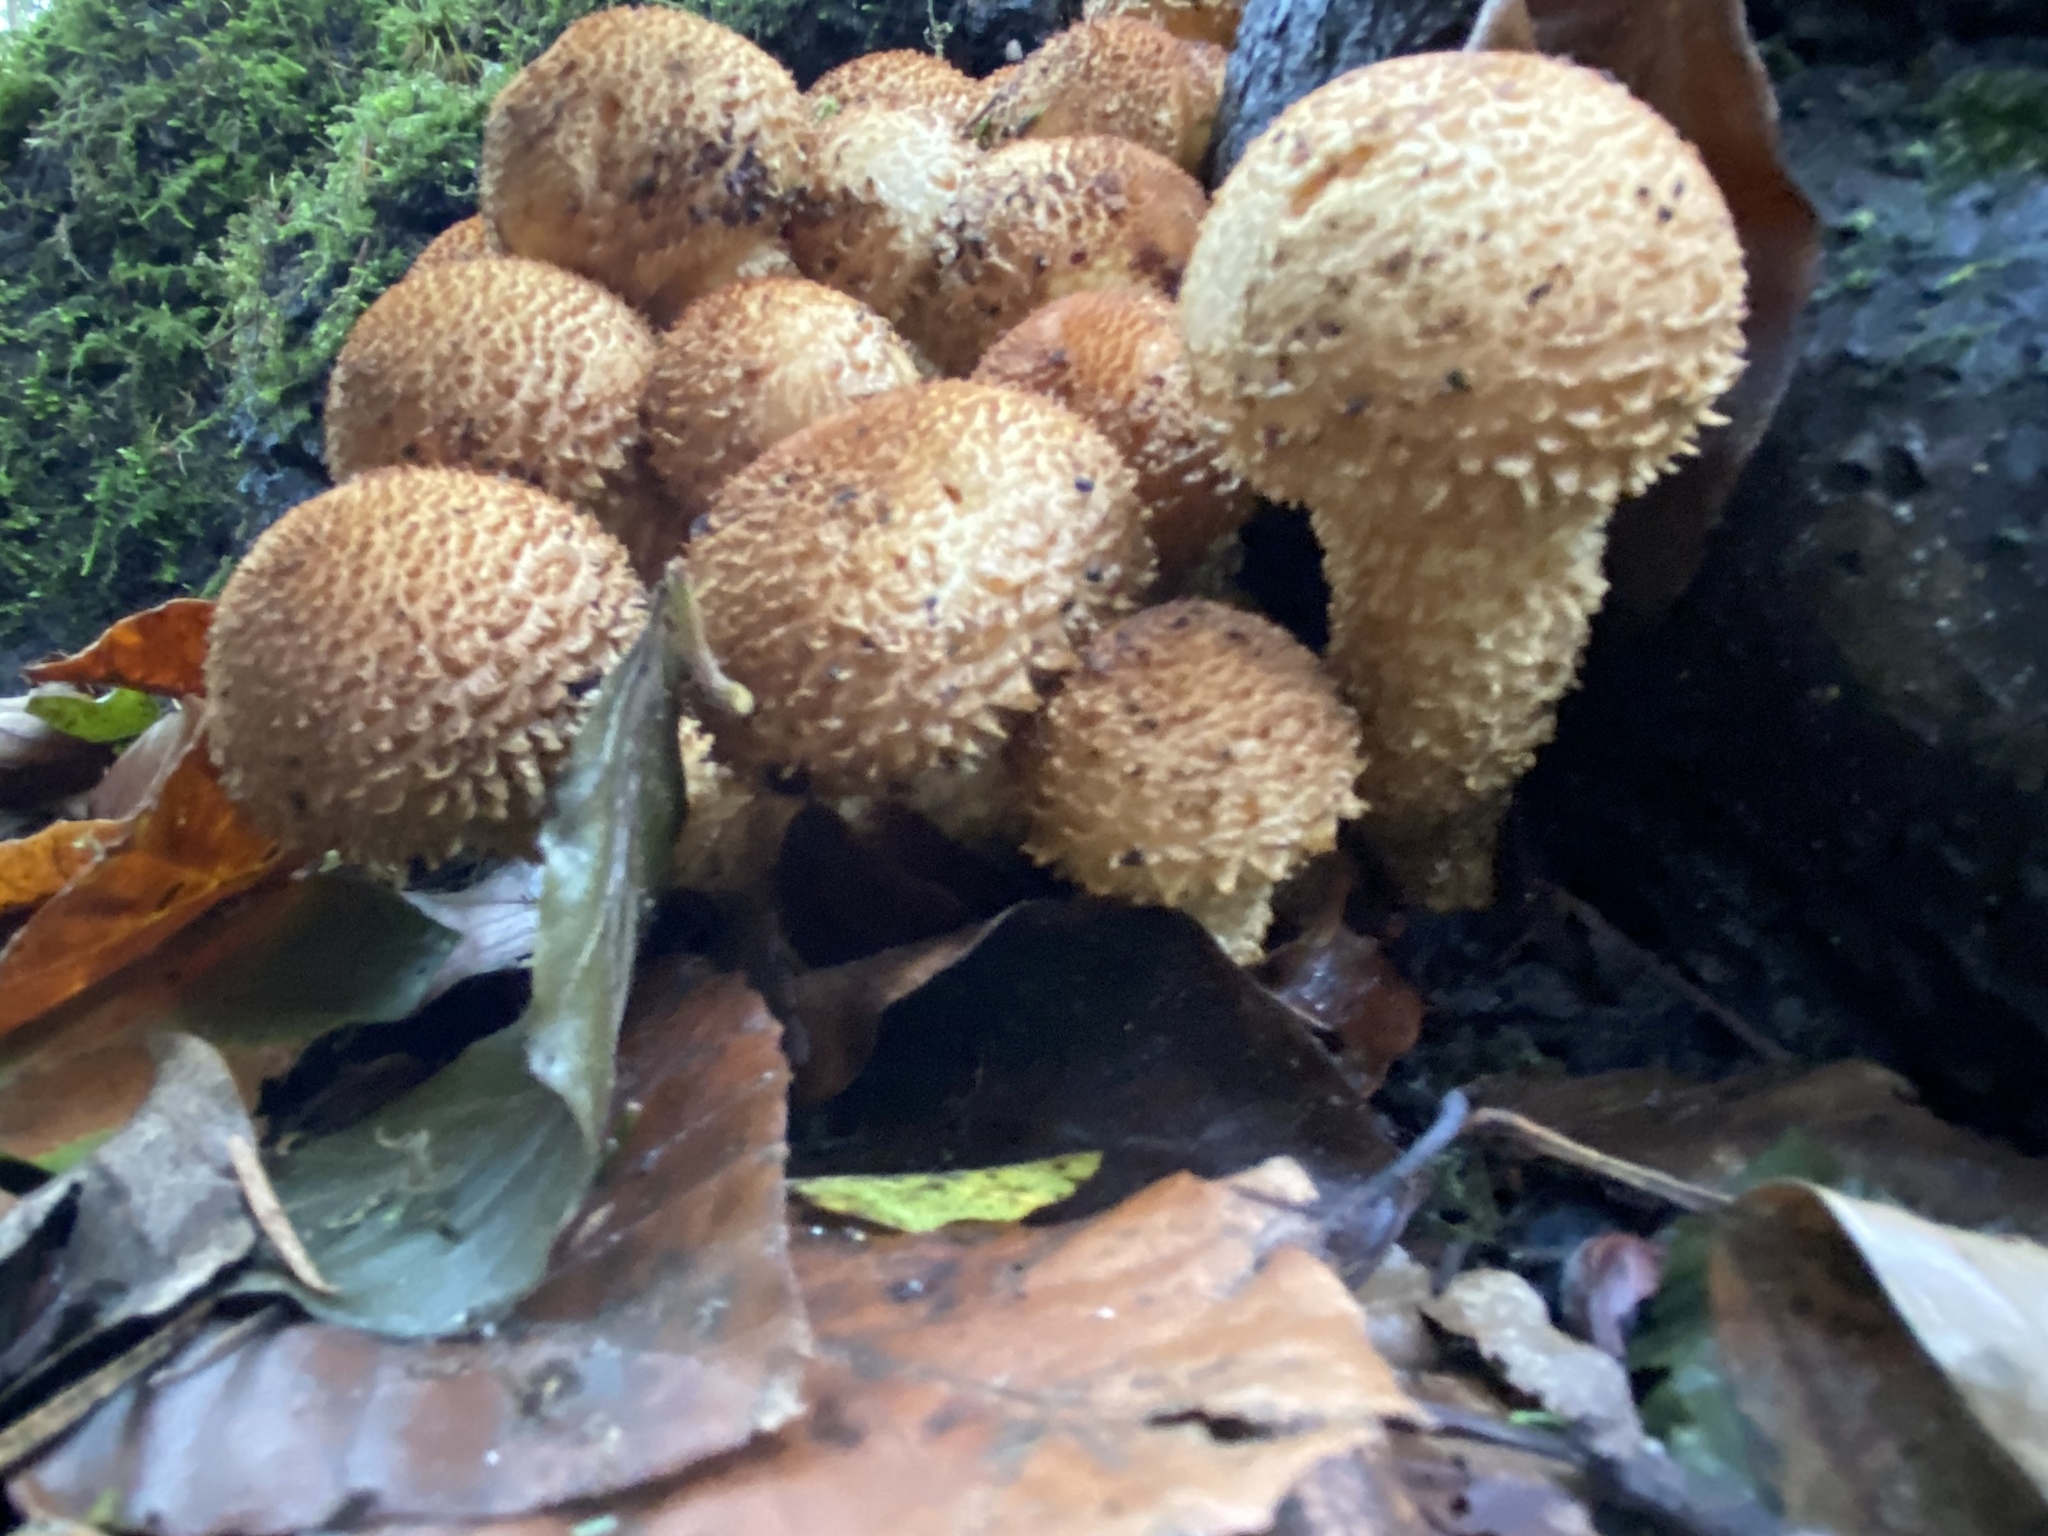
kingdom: Fungi
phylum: Basidiomycota
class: Agaricomycetes
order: Agaricales
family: Strophariaceae
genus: Pholiota
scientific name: Pholiota squarrosa
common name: Shaggy pholiota
